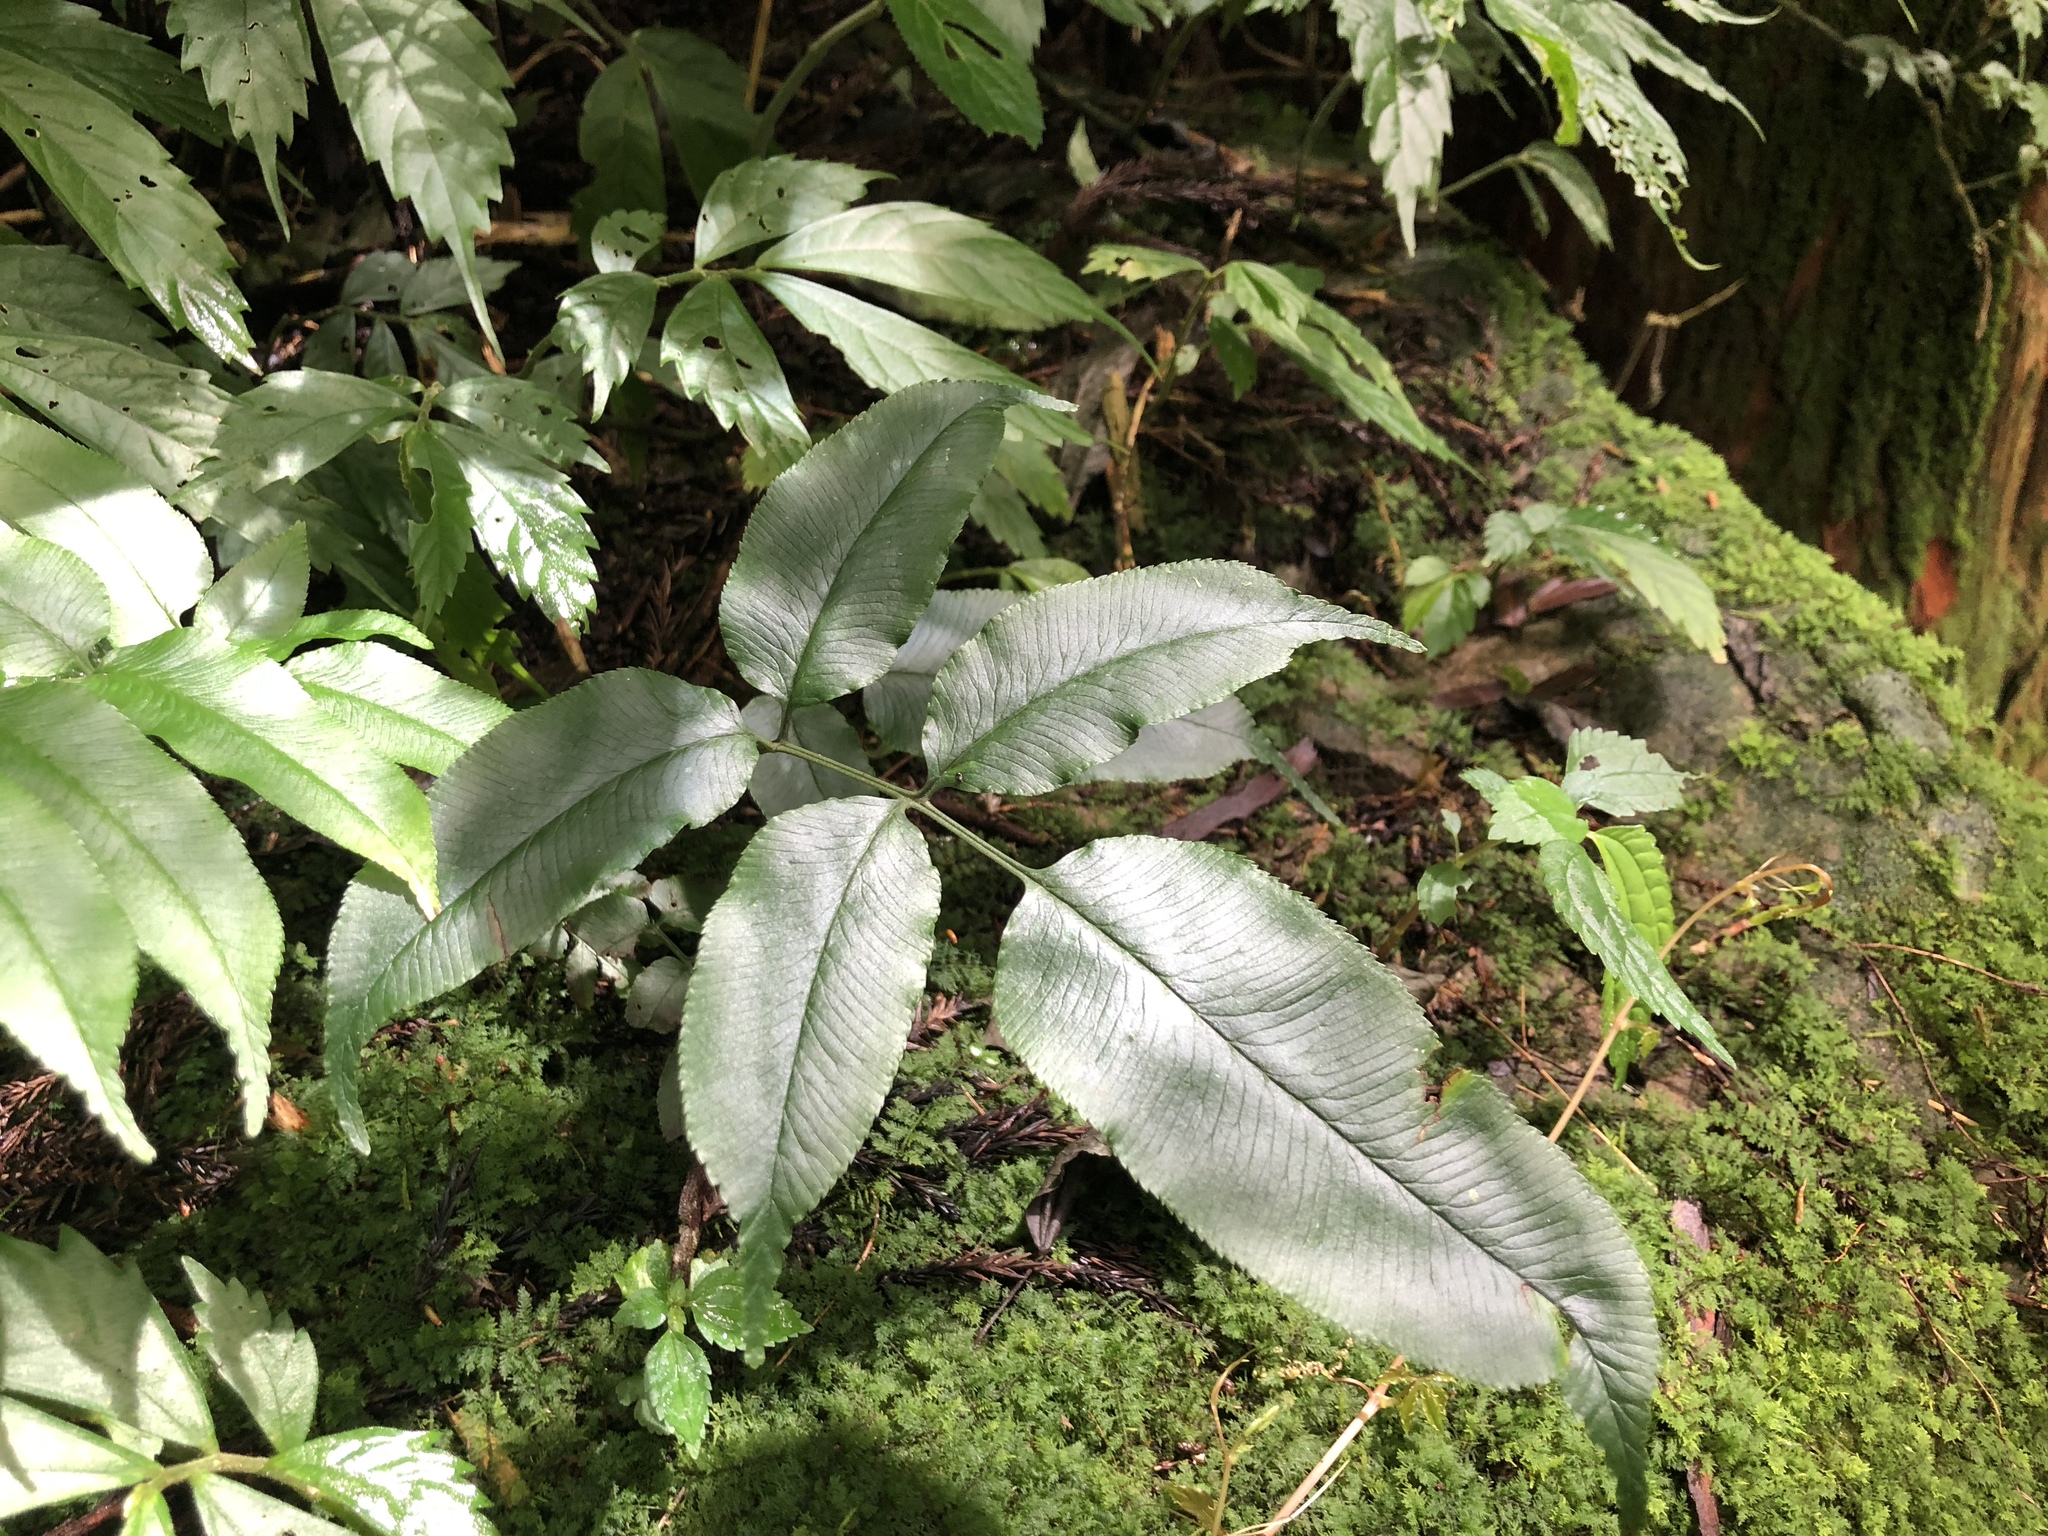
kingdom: Plantae
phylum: Tracheophyta
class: Polypodiopsida
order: Polypodiales
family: Pteridaceae
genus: Coniogramme
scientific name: Coniogramme intermedia
